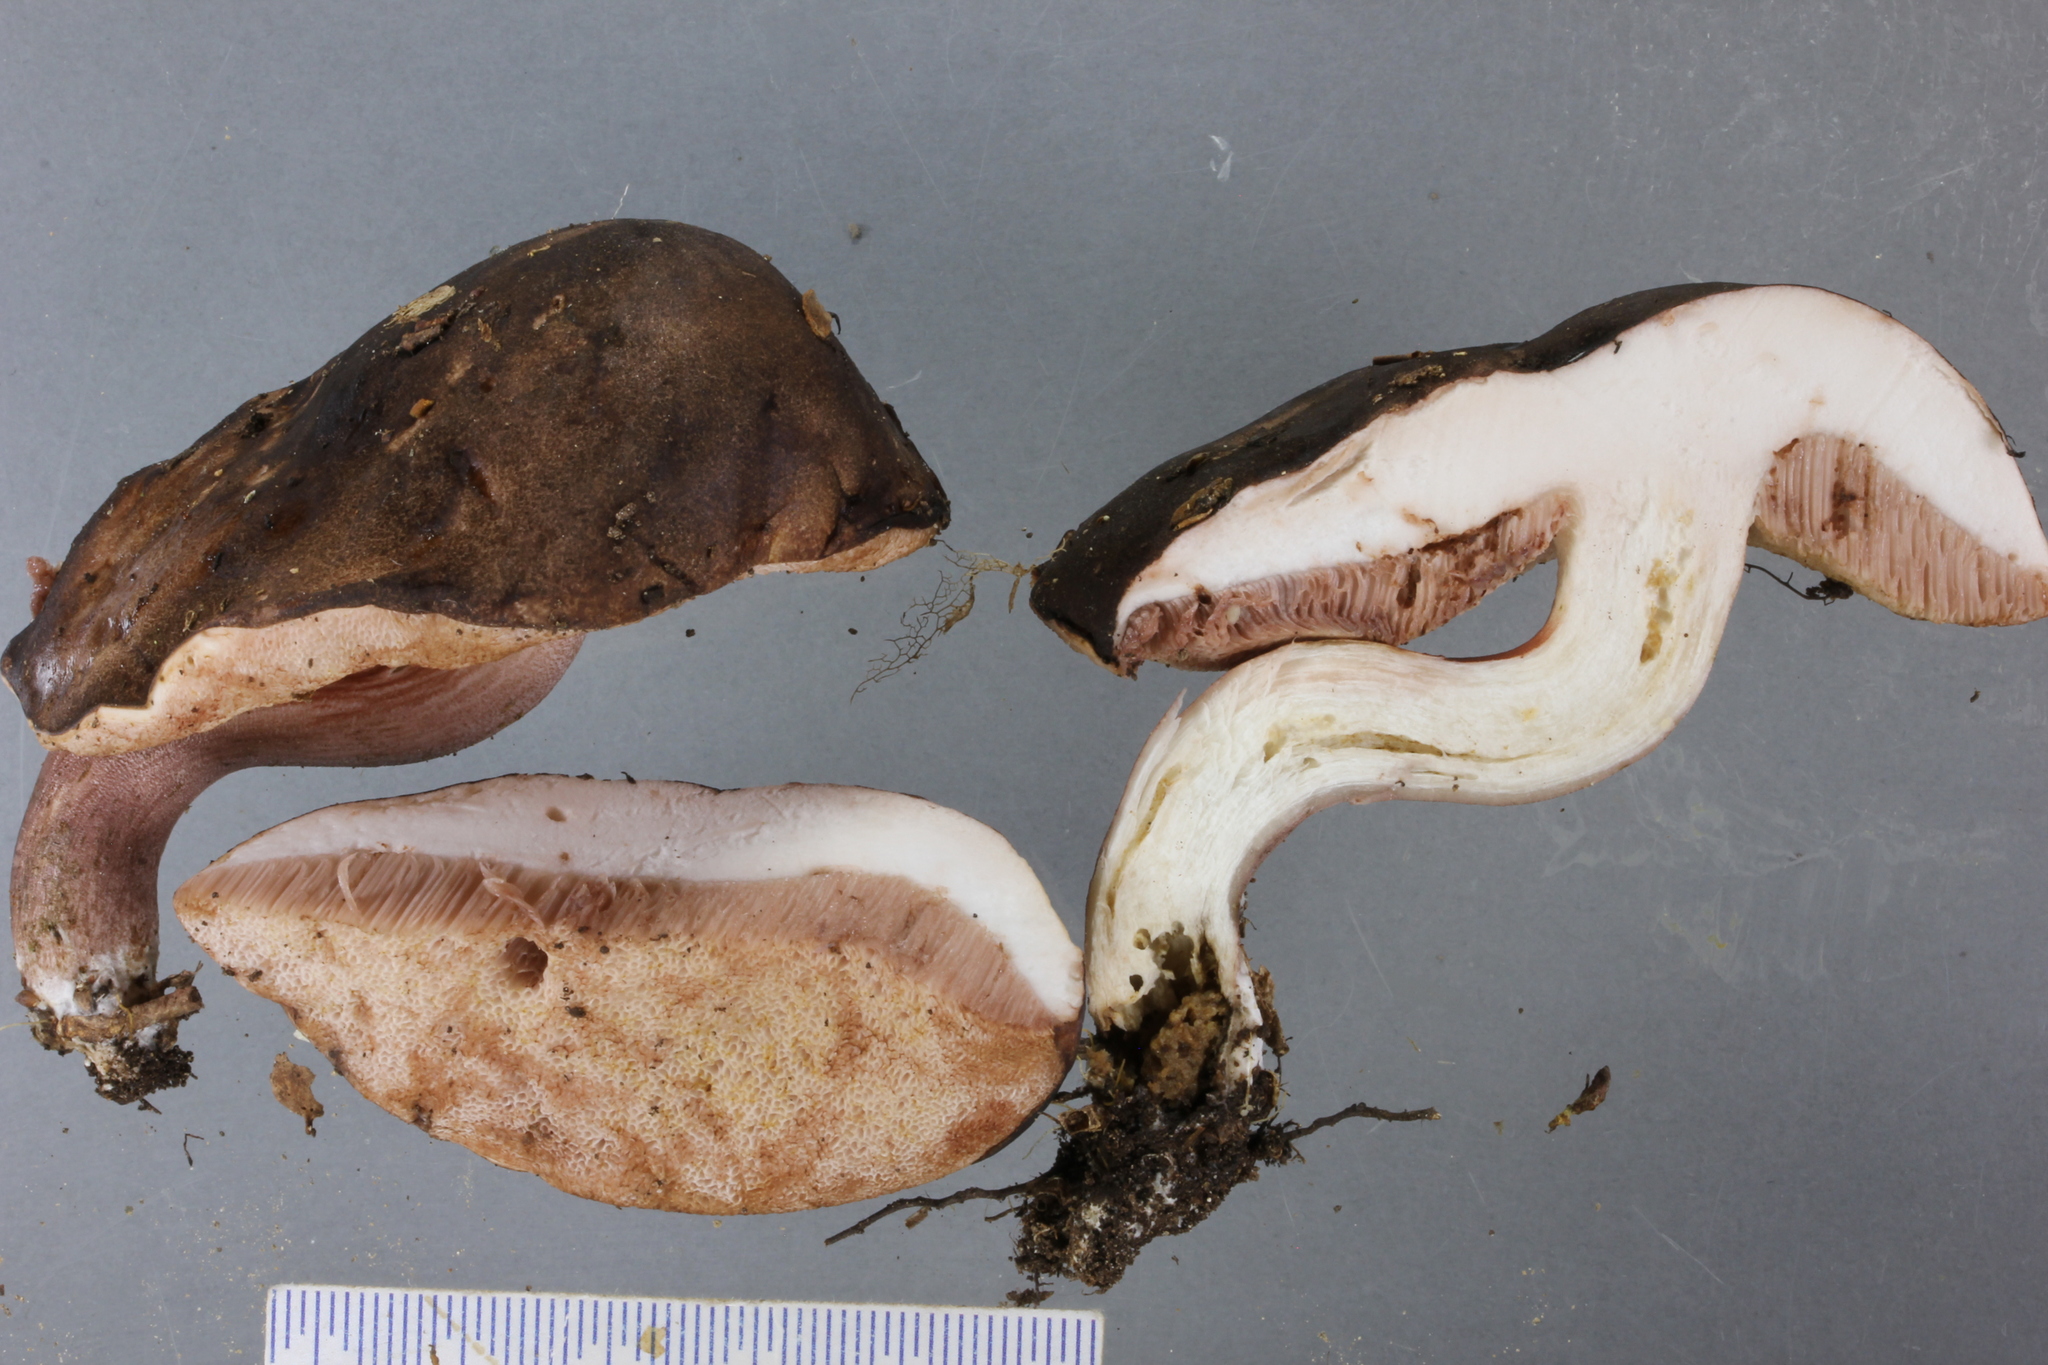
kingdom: Fungi
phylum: Basidiomycota
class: Agaricomycetes
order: Boletales
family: Boletaceae
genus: Porphyrellus
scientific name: Porphyrellus formosus
